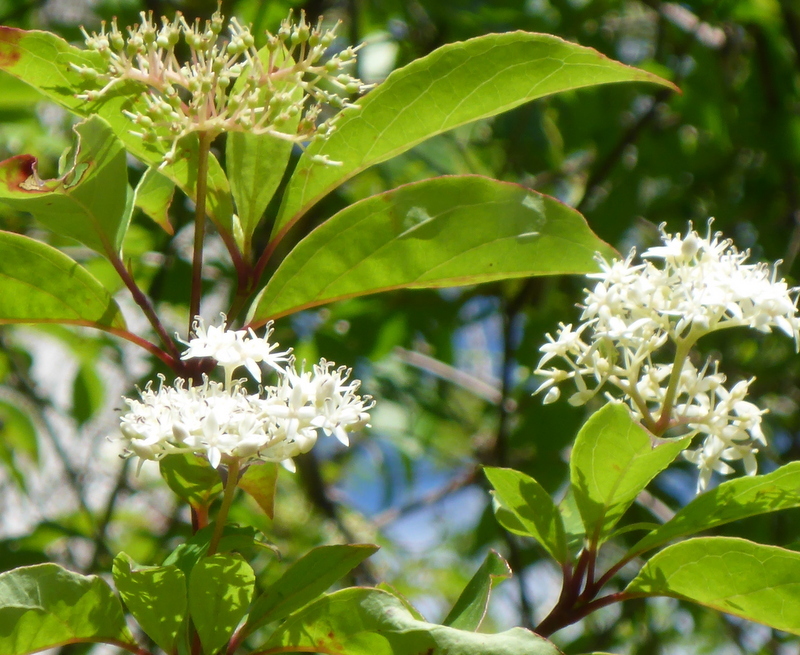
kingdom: Plantae
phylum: Tracheophyta
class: Magnoliopsida
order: Cornales
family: Cornaceae
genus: Cornus
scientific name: Cornus foemina
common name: Swamp dogwood
